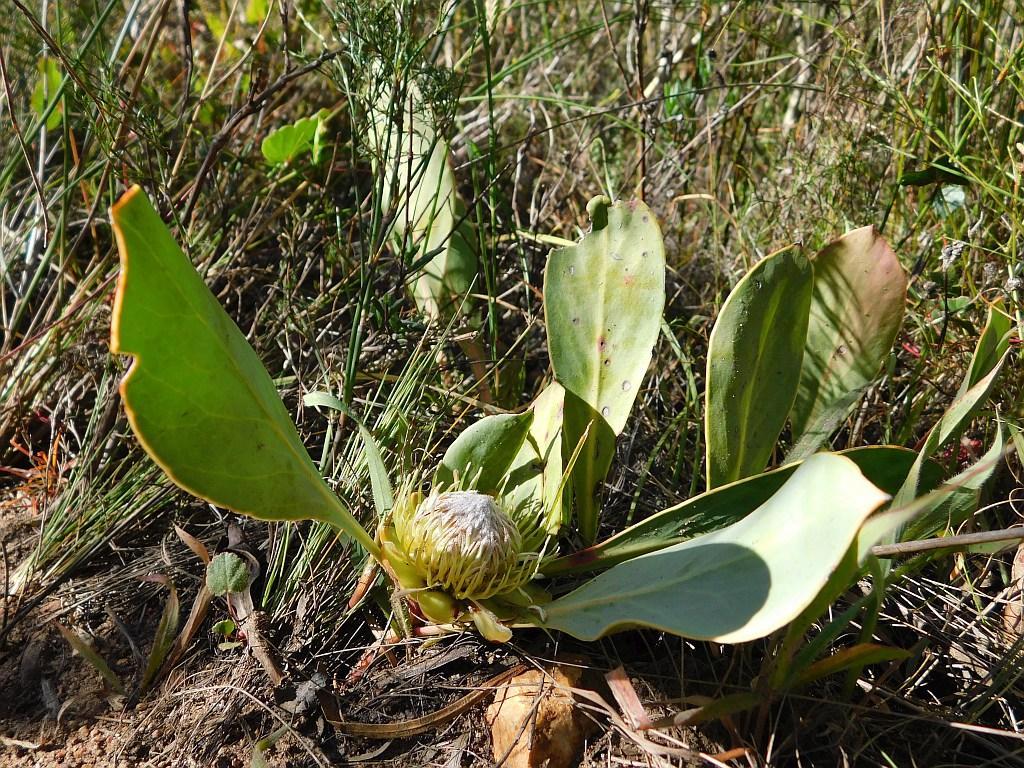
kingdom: Plantae
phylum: Tracheophyta
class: Magnoliopsida
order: Proteales
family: Proteaceae
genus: Protea
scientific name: Protea acaulos
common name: Common ground sugarbush
